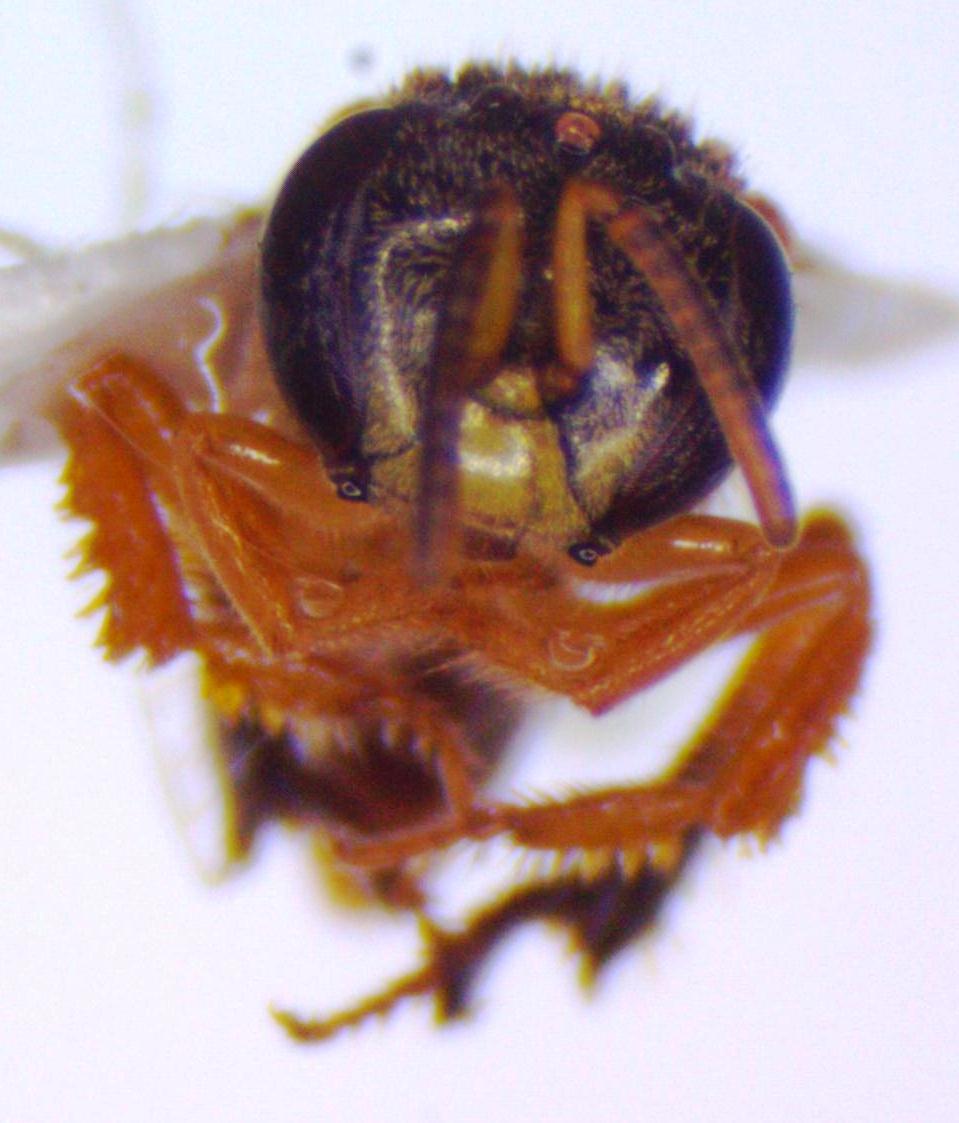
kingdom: Animalia
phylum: Arthropoda
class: Insecta
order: Hymenoptera
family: Apidae
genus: Tetragonisca
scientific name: Tetragonisca angustula
